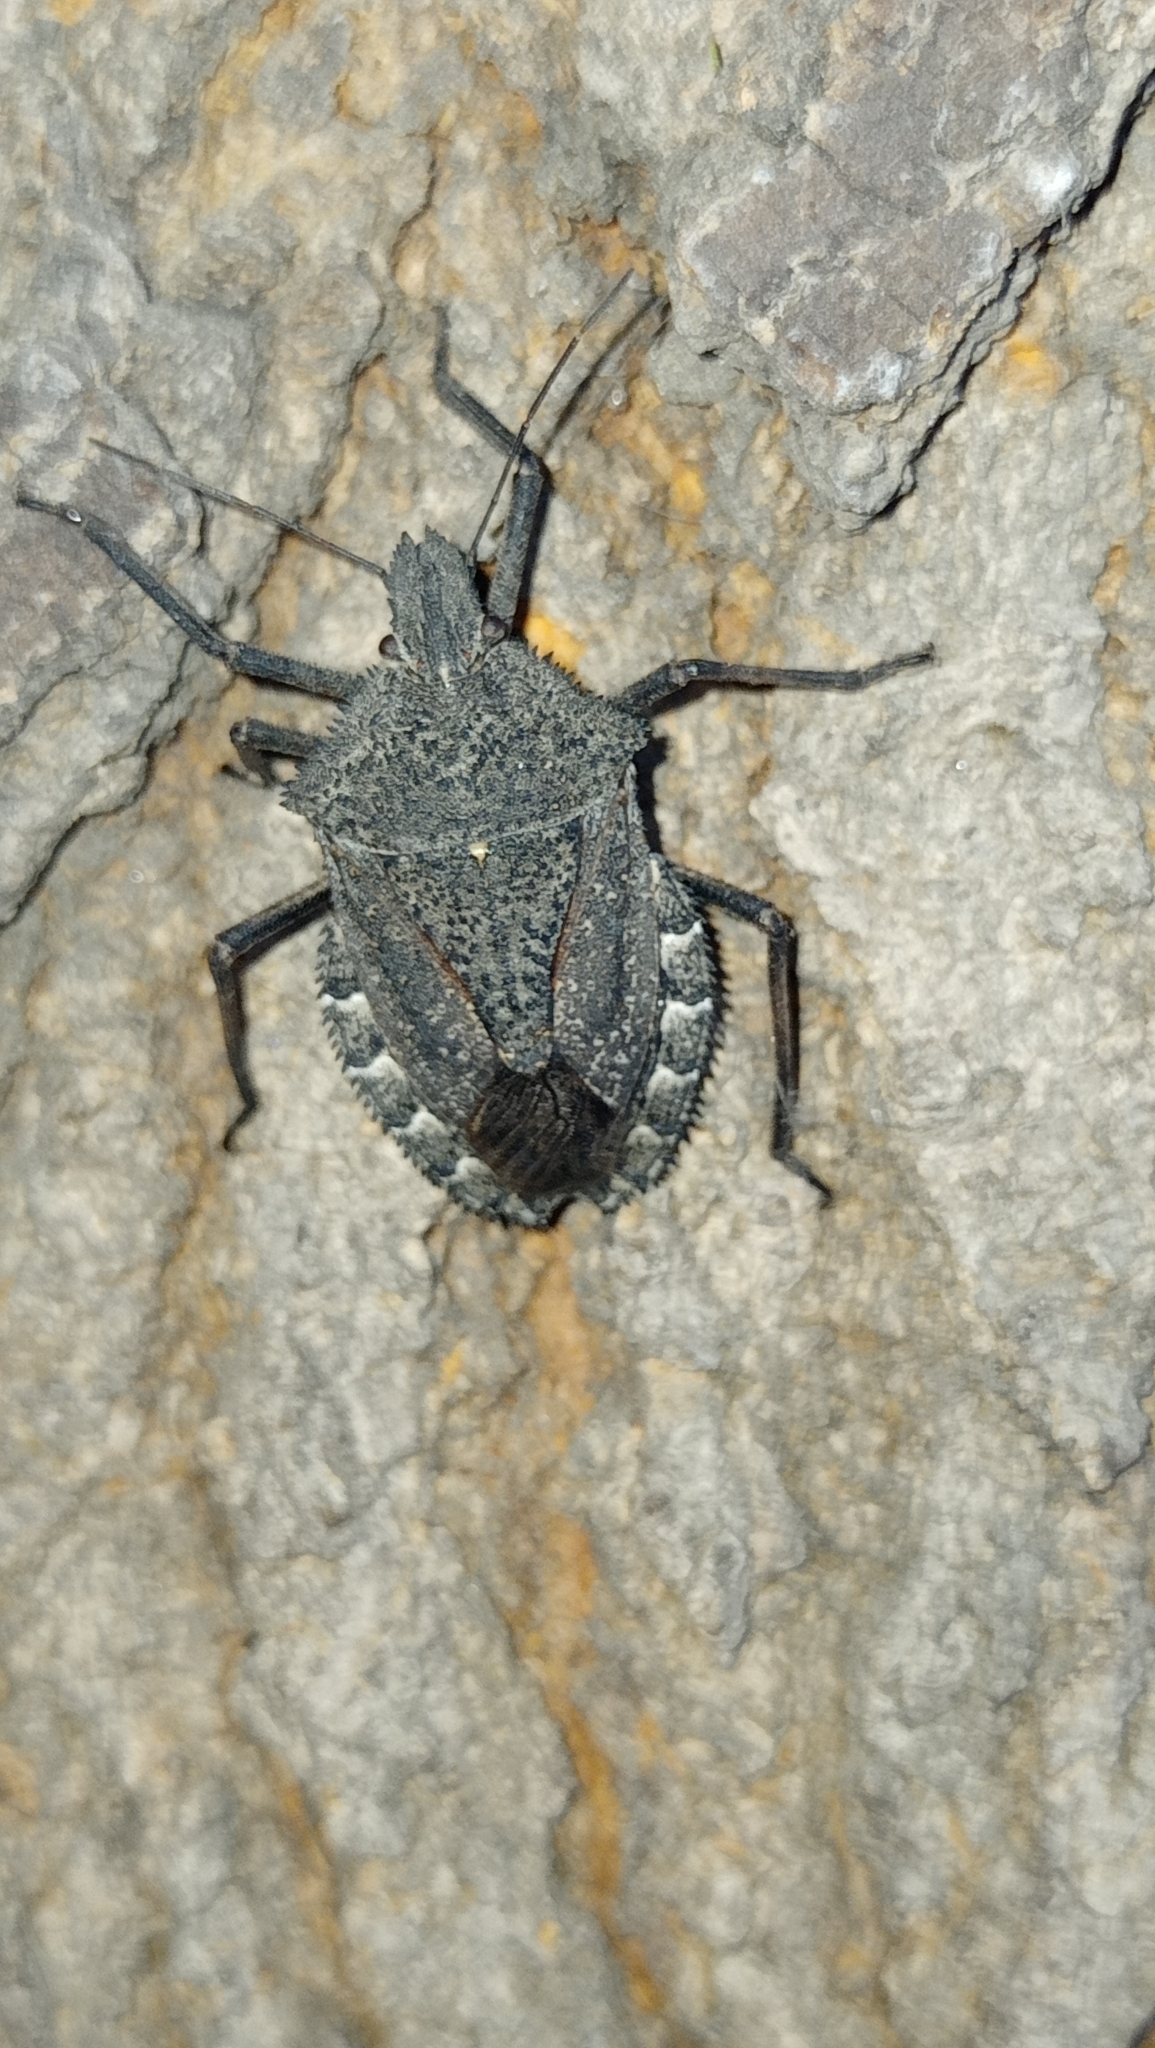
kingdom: Animalia
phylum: Arthropoda
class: Insecta
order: Hemiptera
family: Pentatomidae
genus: Mustha
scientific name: Mustha spinosula
